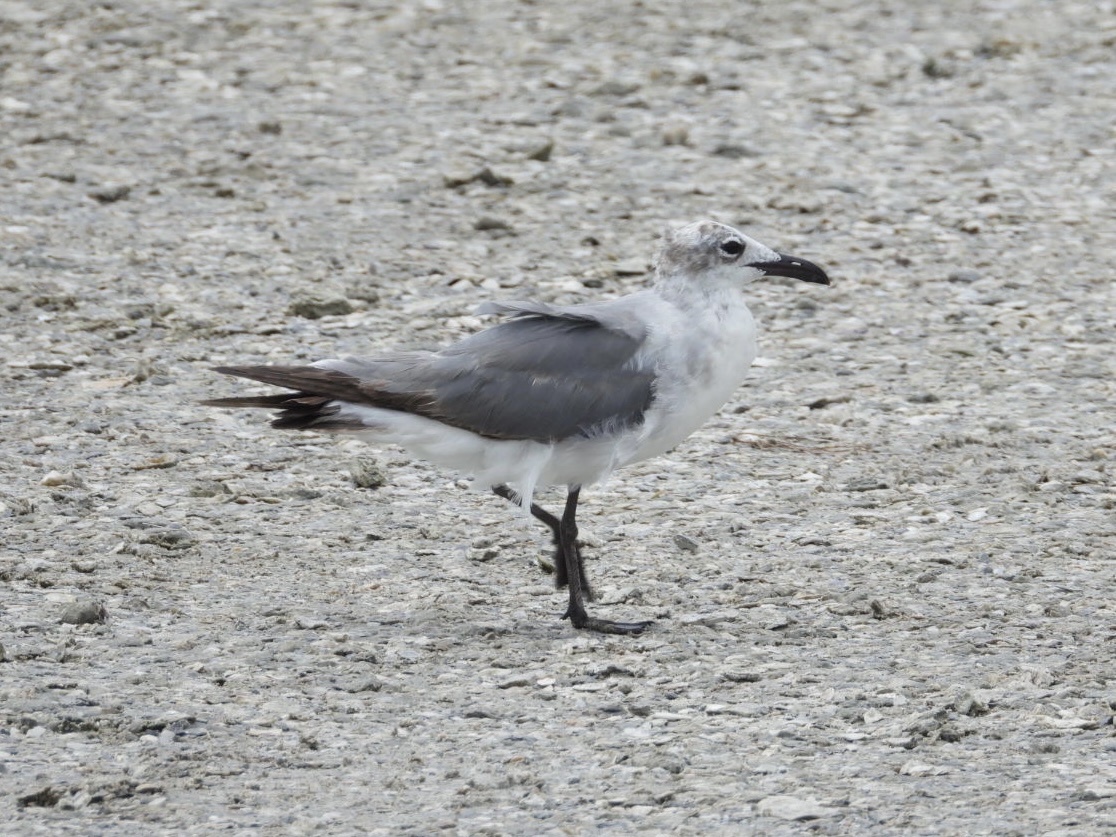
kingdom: Animalia
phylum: Chordata
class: Aves
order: Charadriiformes
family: Laridae
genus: Leucophaeus
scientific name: Leucophaeus atricilla
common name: Laughing gull
